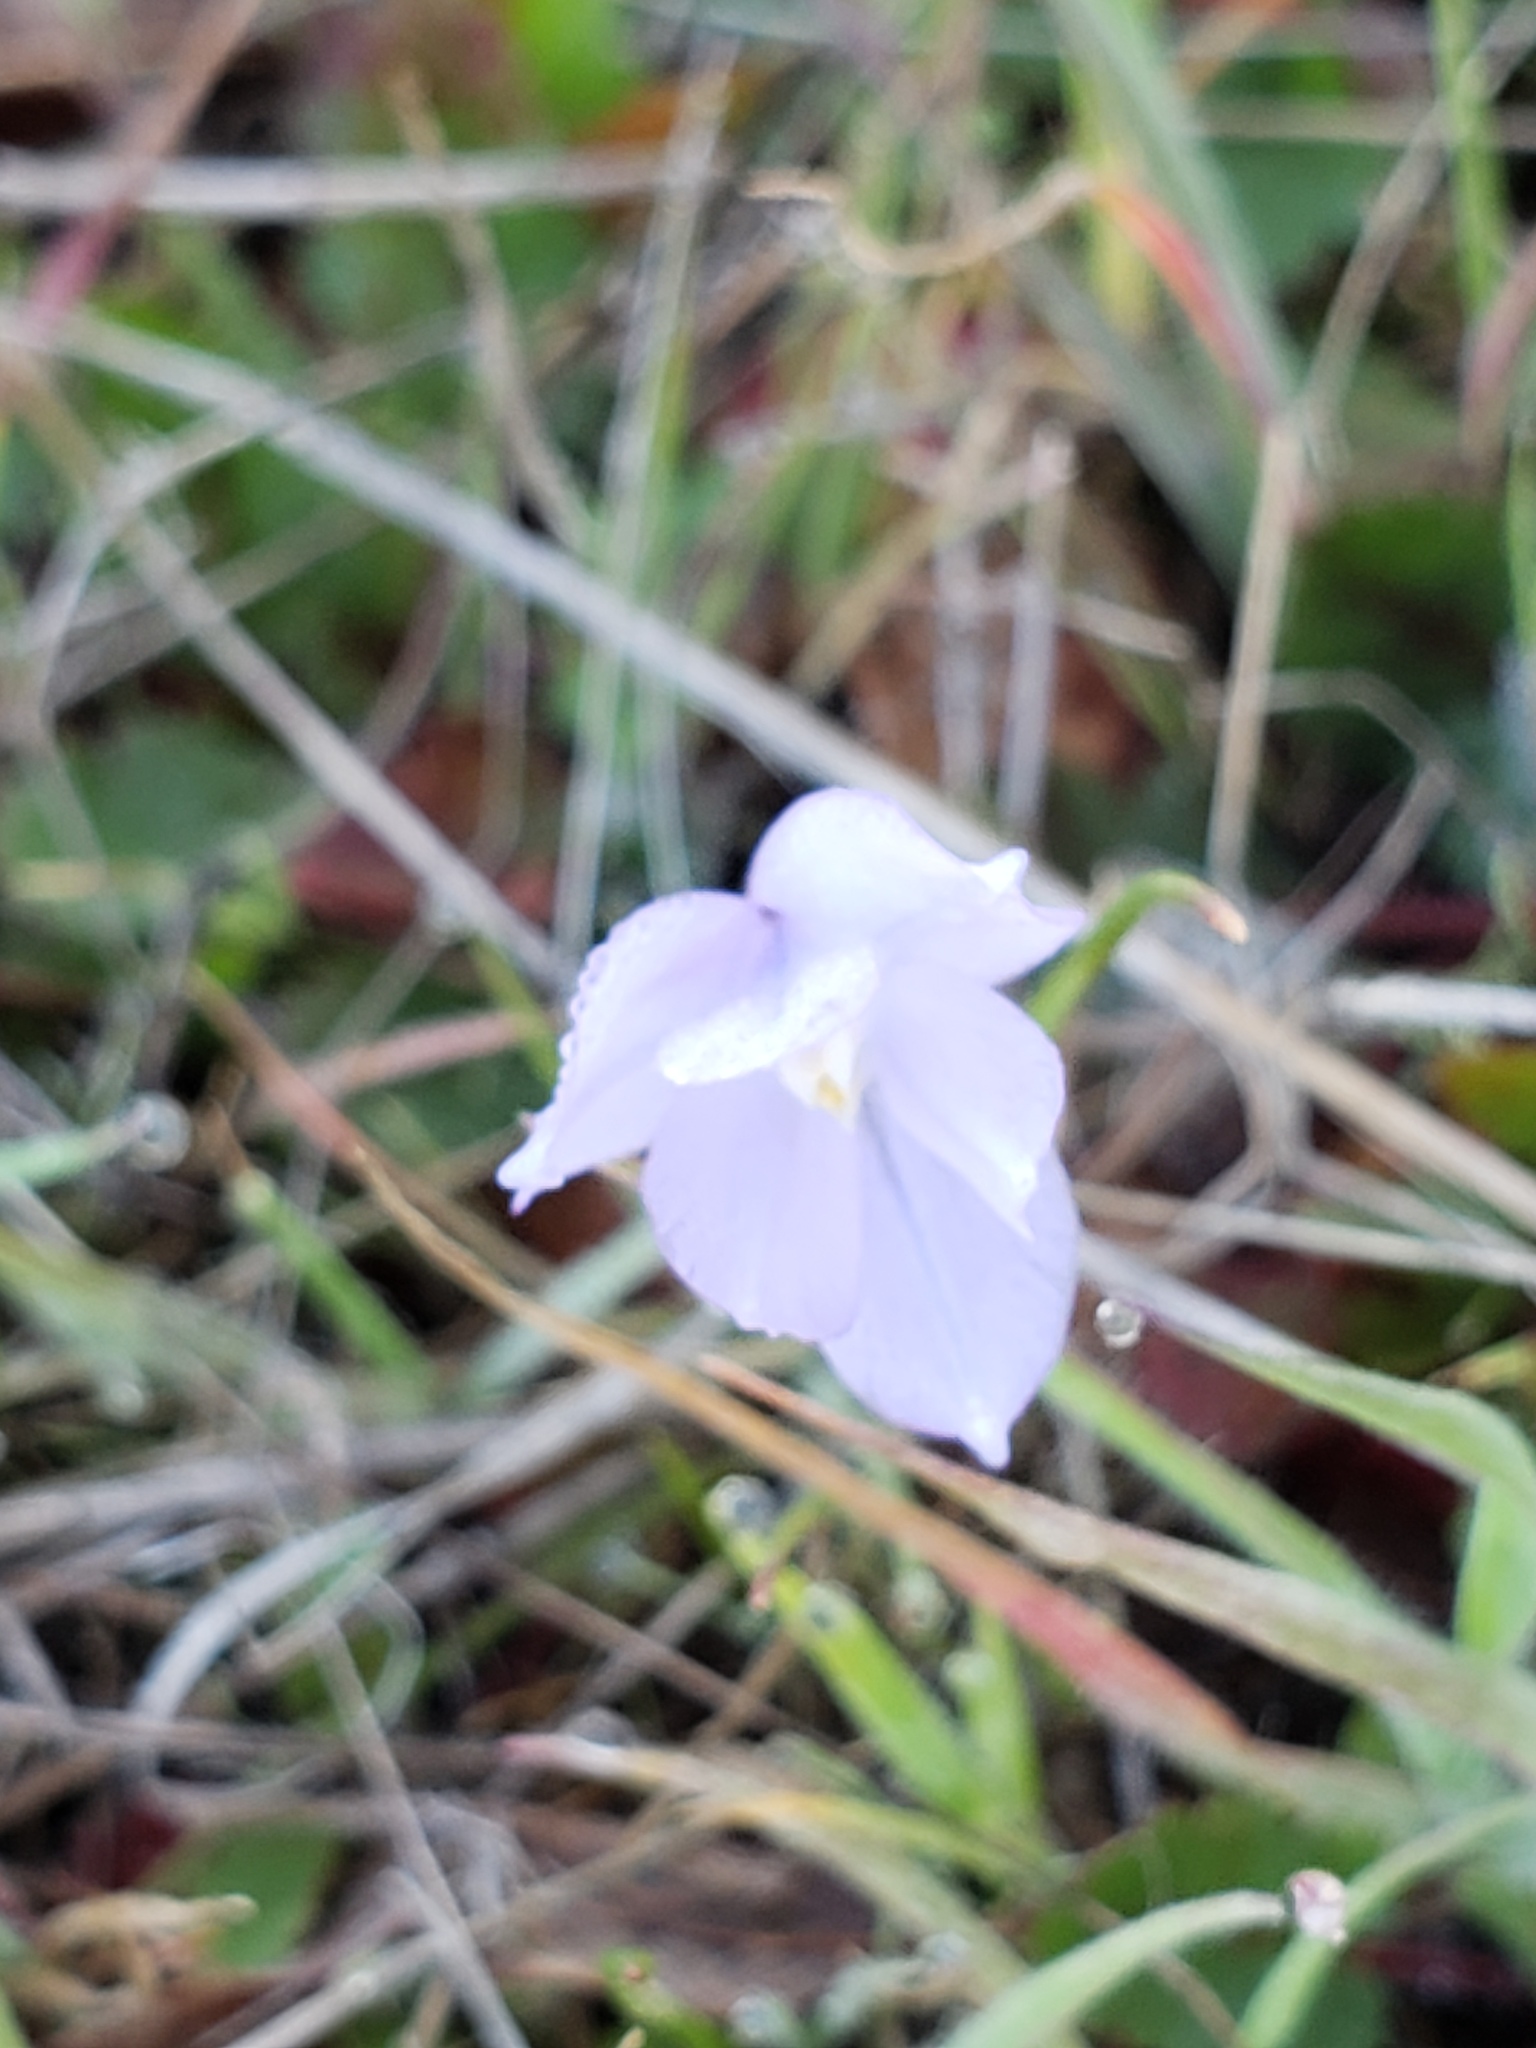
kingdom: Plantae
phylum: Tracheophyta
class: Liliopsida
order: Asparagales
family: Asparagaceae
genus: Dipterostemon
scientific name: Dipterostemon capitatus
